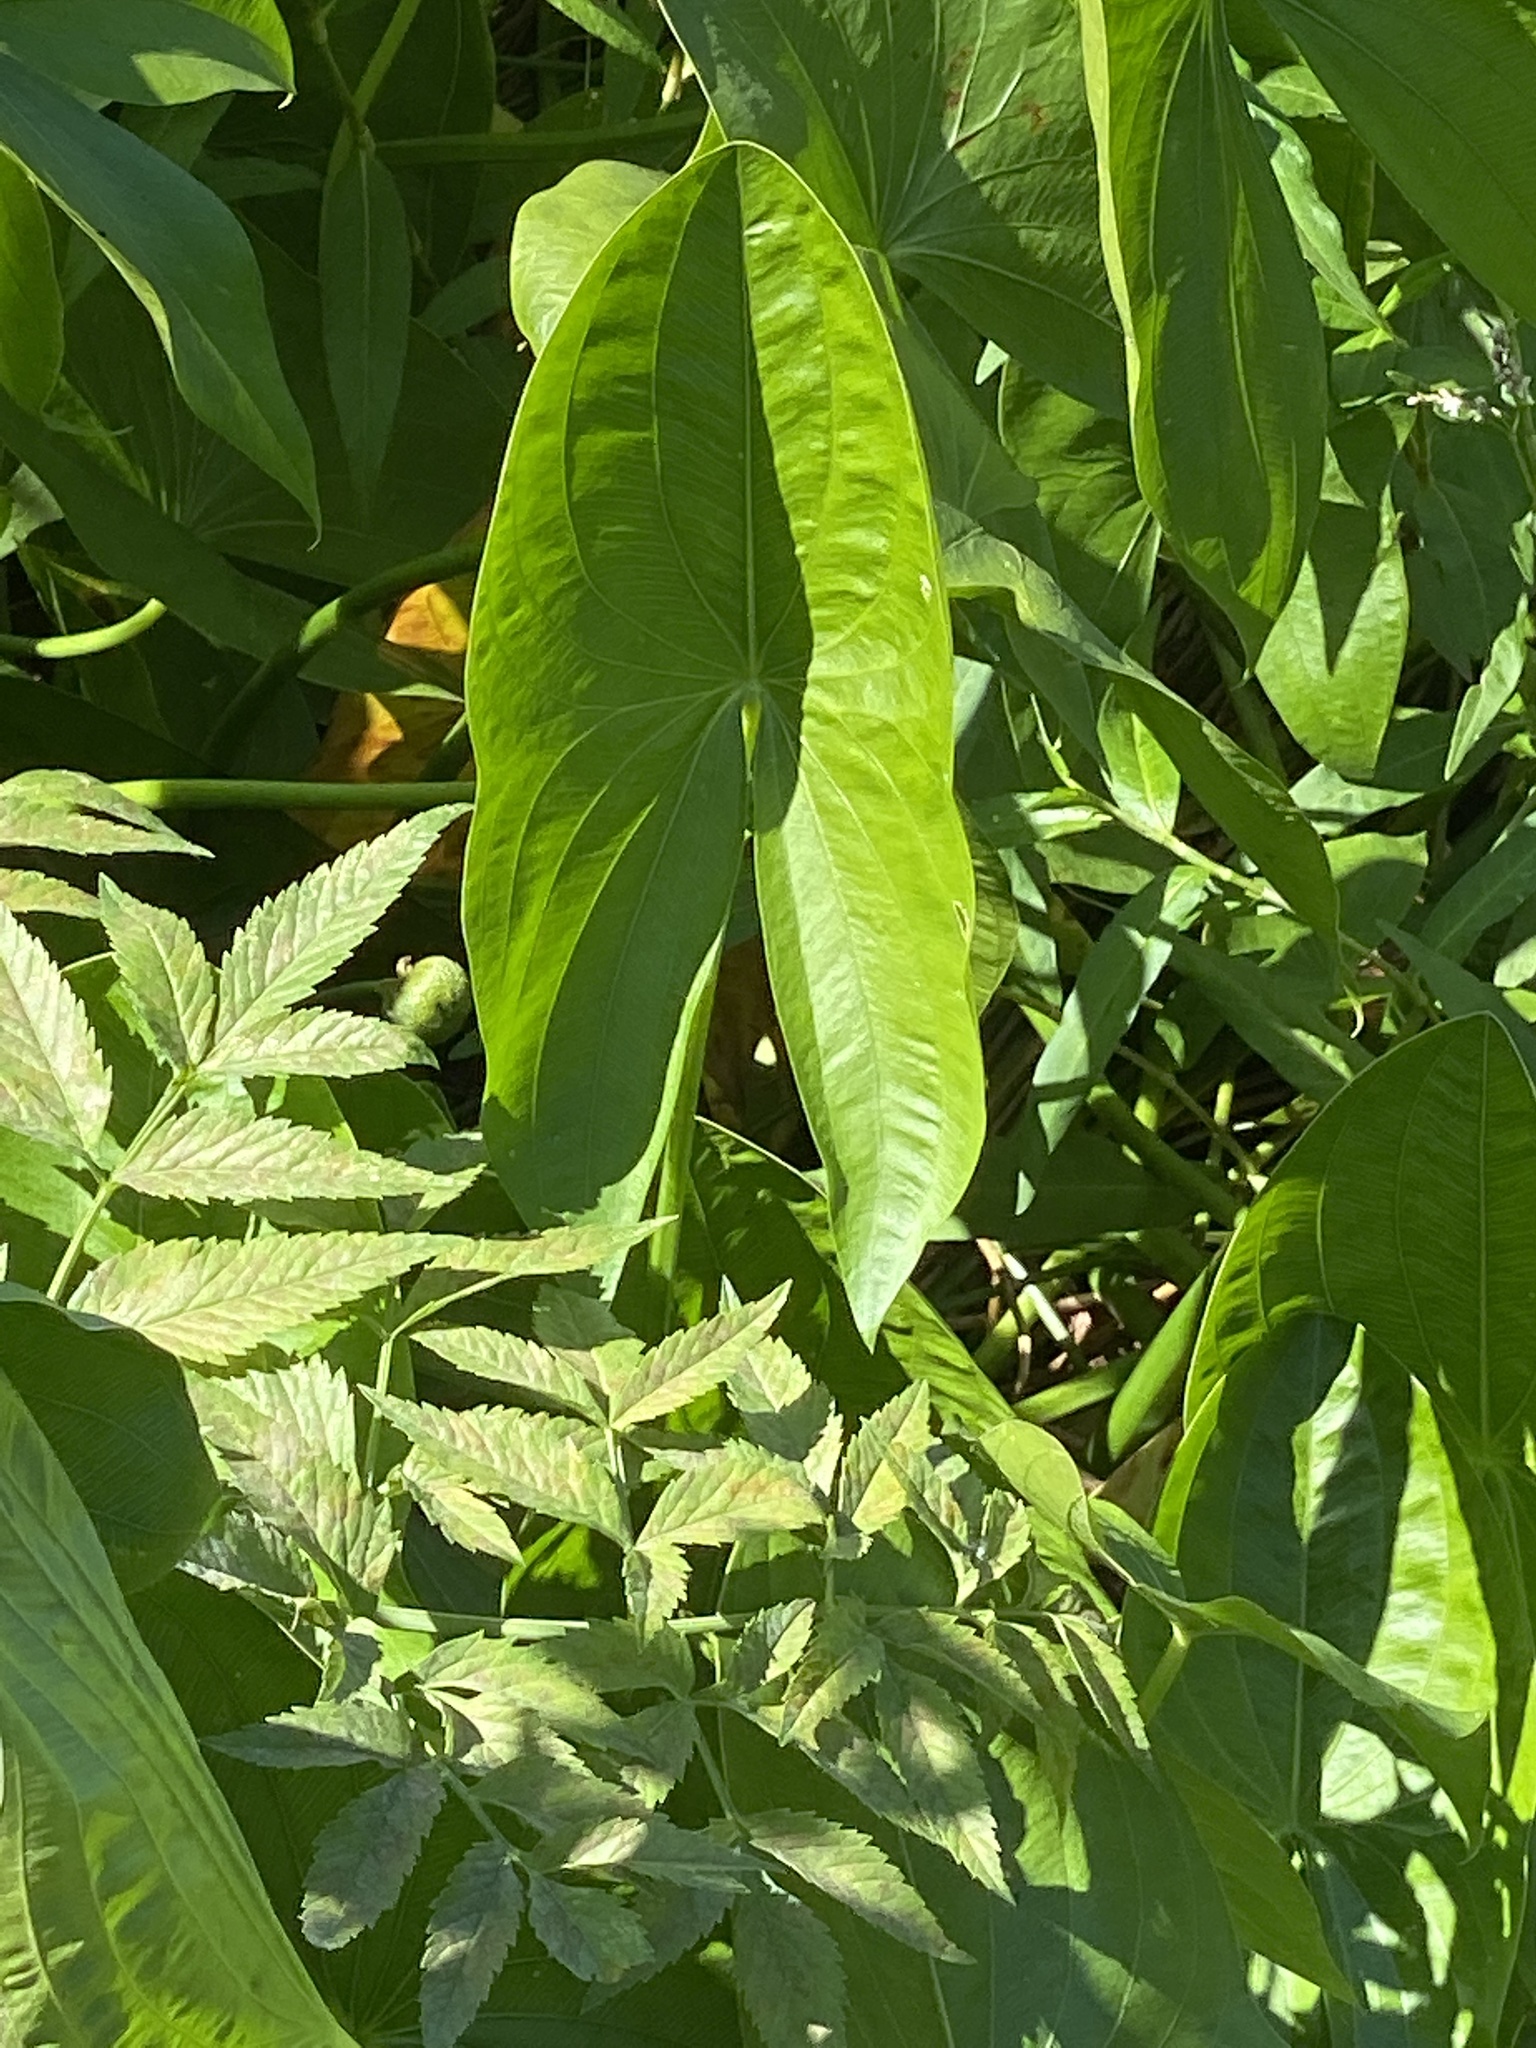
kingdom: Plantae
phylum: Tracheophyta
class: Liliopsida
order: Alismatales
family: Alismataceae
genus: Sagittaria
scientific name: Sagittaria latifolia
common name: Duck-potato
